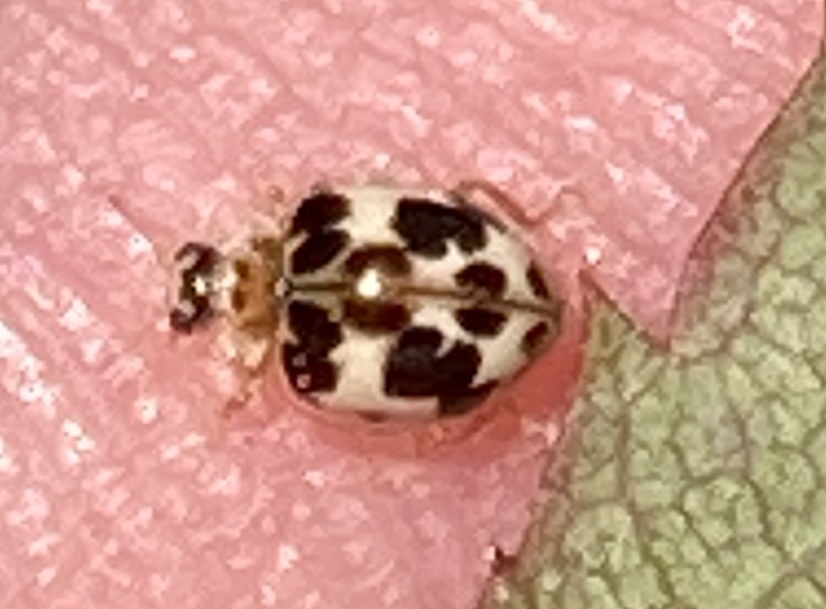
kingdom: Animalia
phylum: Arthropoda
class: Insecta
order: Coleoptera
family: Coccinellidae
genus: Psyllobora
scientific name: Psyllobora borealis
